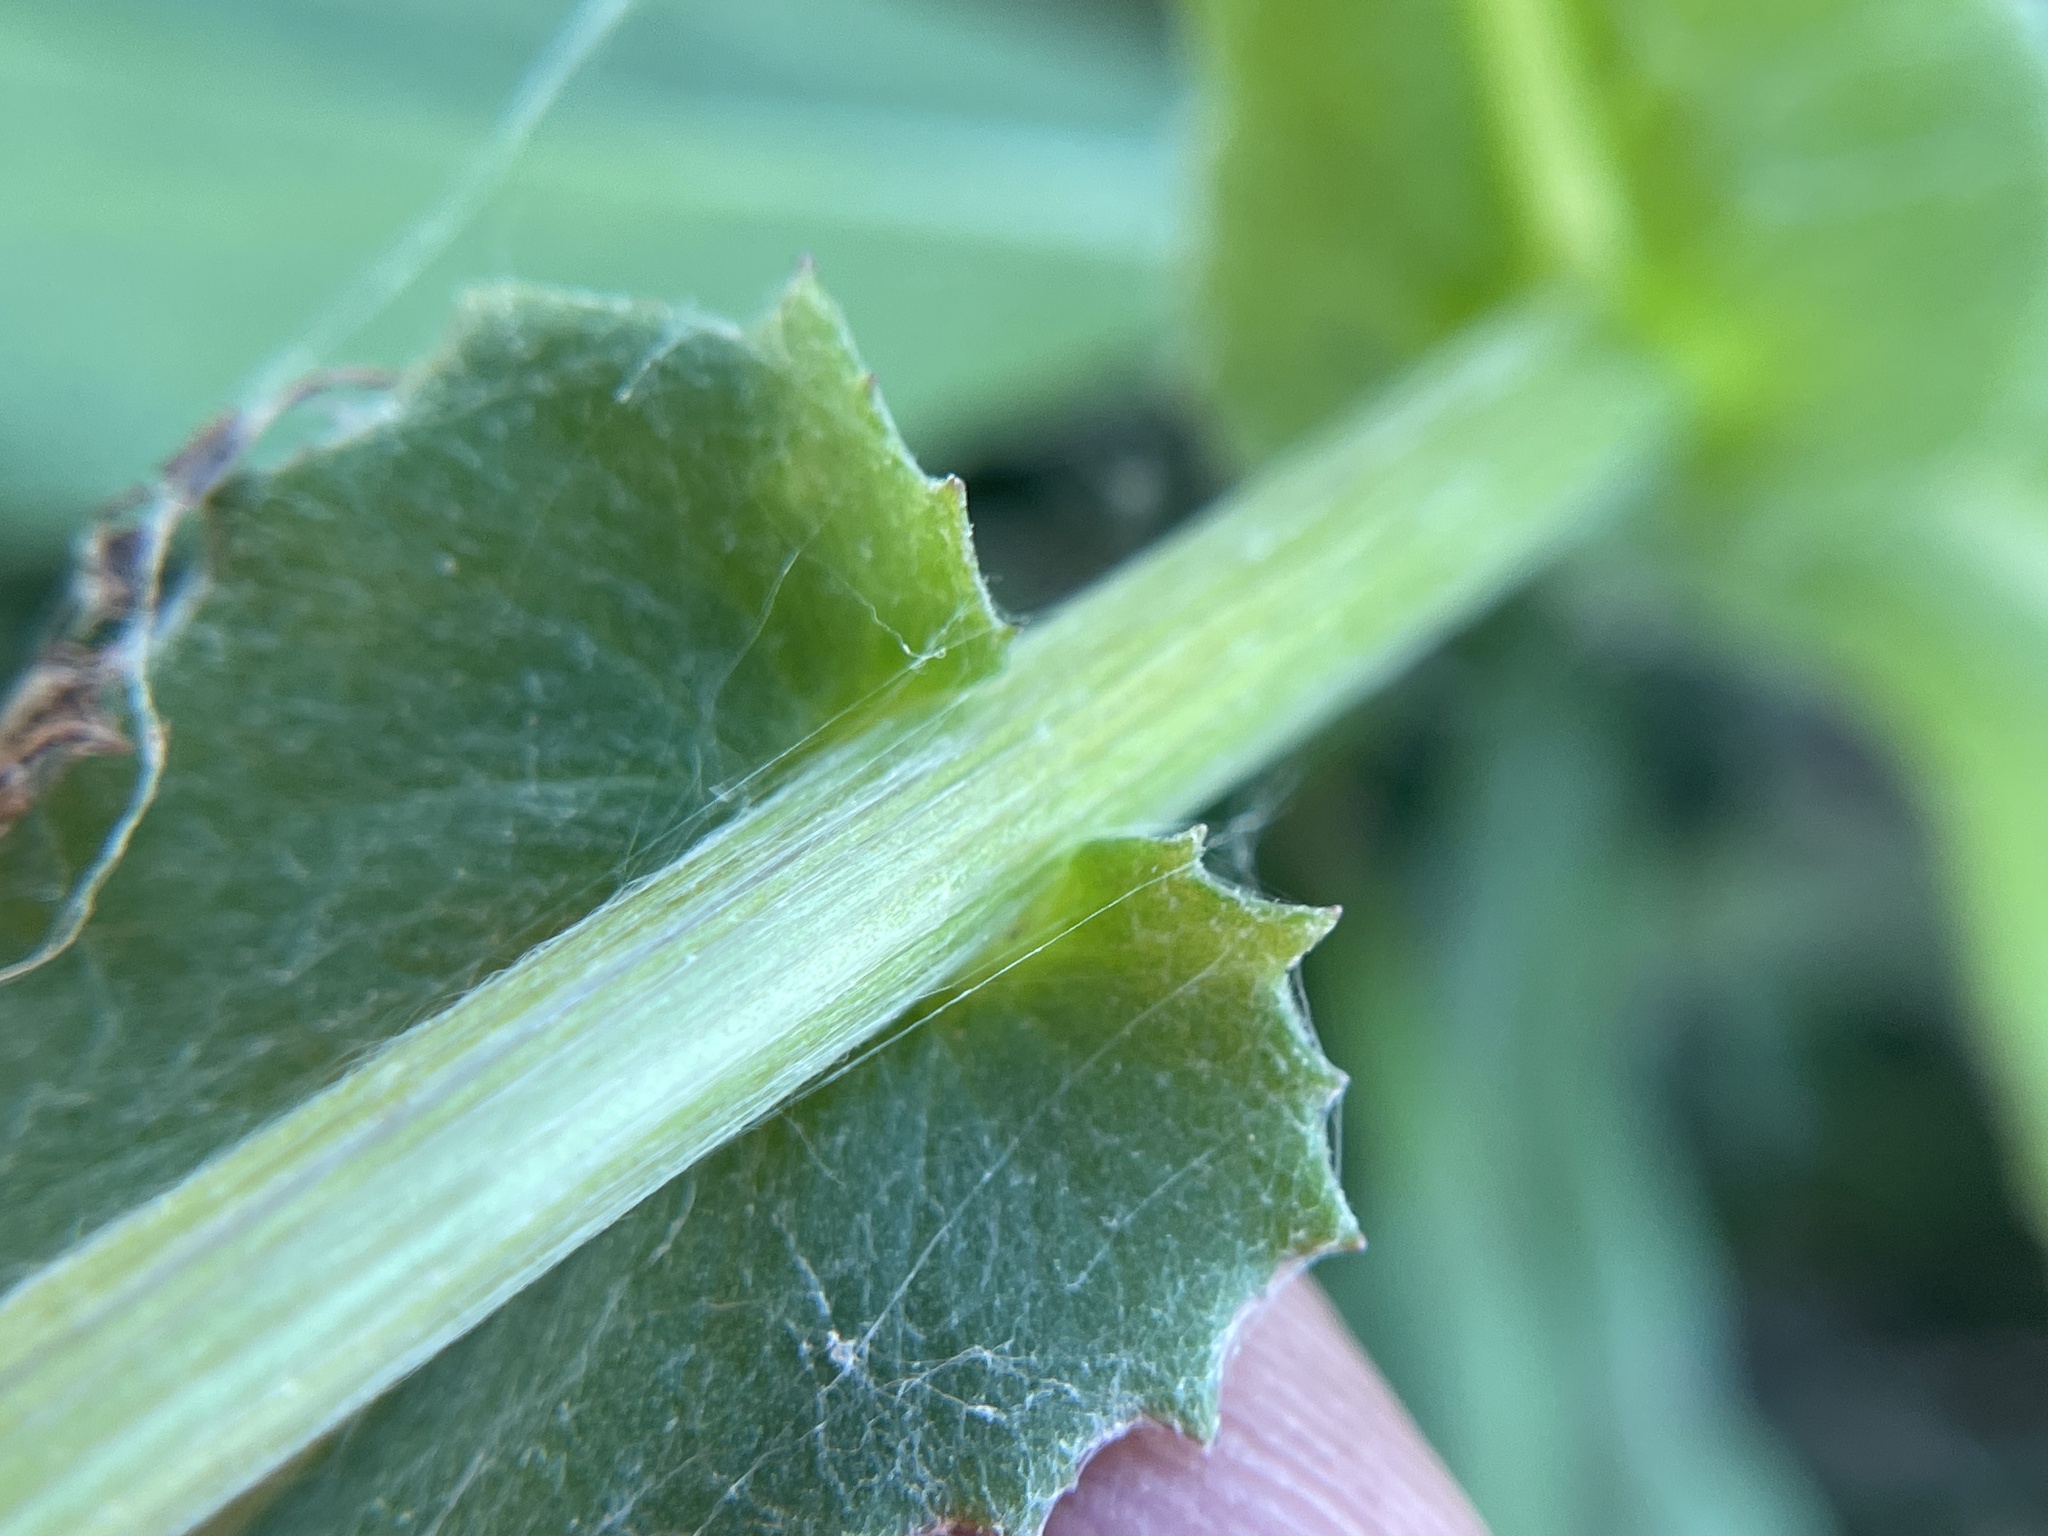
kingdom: Plantae
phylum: Tracheophyta
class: Magnoliopsida
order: Asterales
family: Asteraceae
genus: Senecio
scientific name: Senecio ampullaceus
